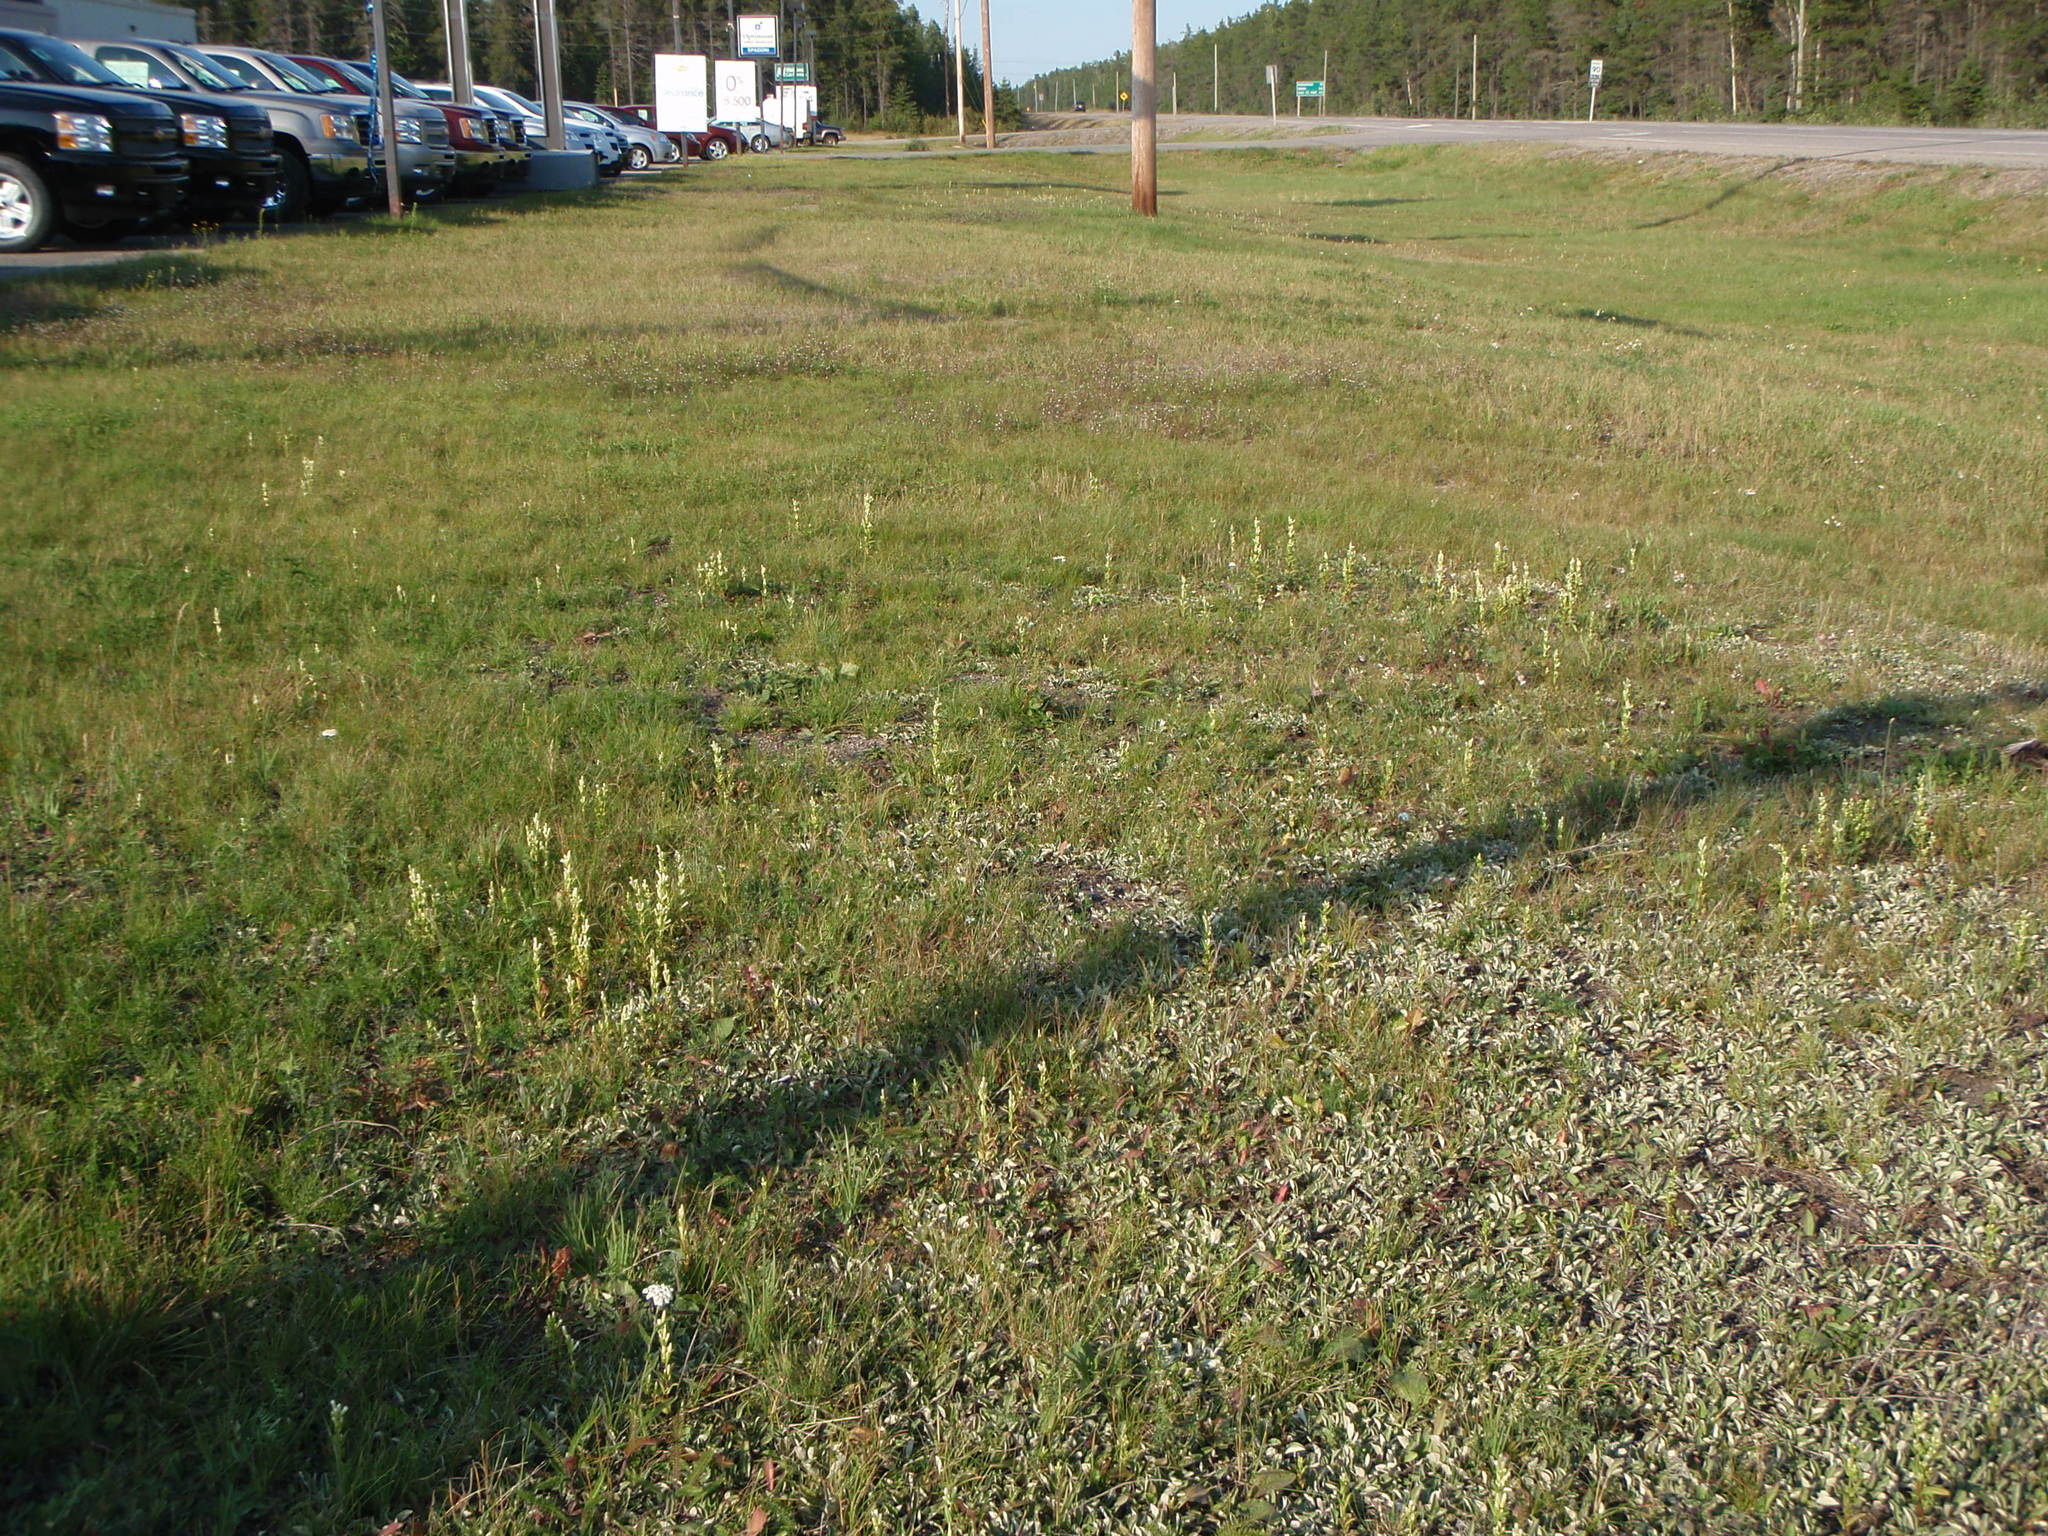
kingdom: Plantae
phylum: Tracheophyta
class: Magnoliopsida
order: Gentianales
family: Gentianaceae
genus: Gentianella
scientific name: Gentianella amarella
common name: Autumn gentian
